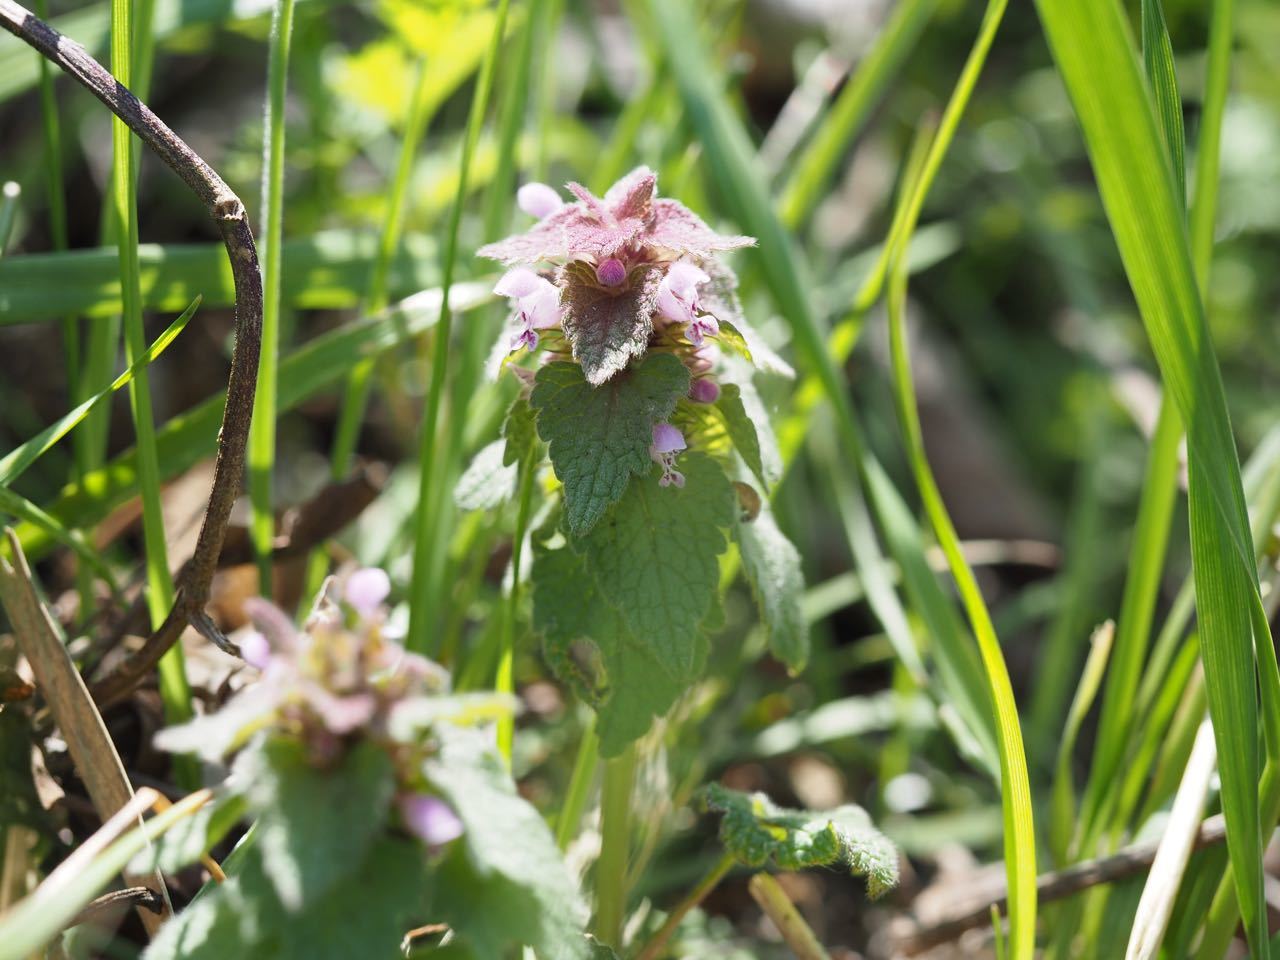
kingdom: Plantae
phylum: Tracheophyta
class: Magnoliopsida
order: Lamiales
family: Lamiaceae
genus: Lamium
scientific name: Lamium purpureum
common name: Red dead-nettle
